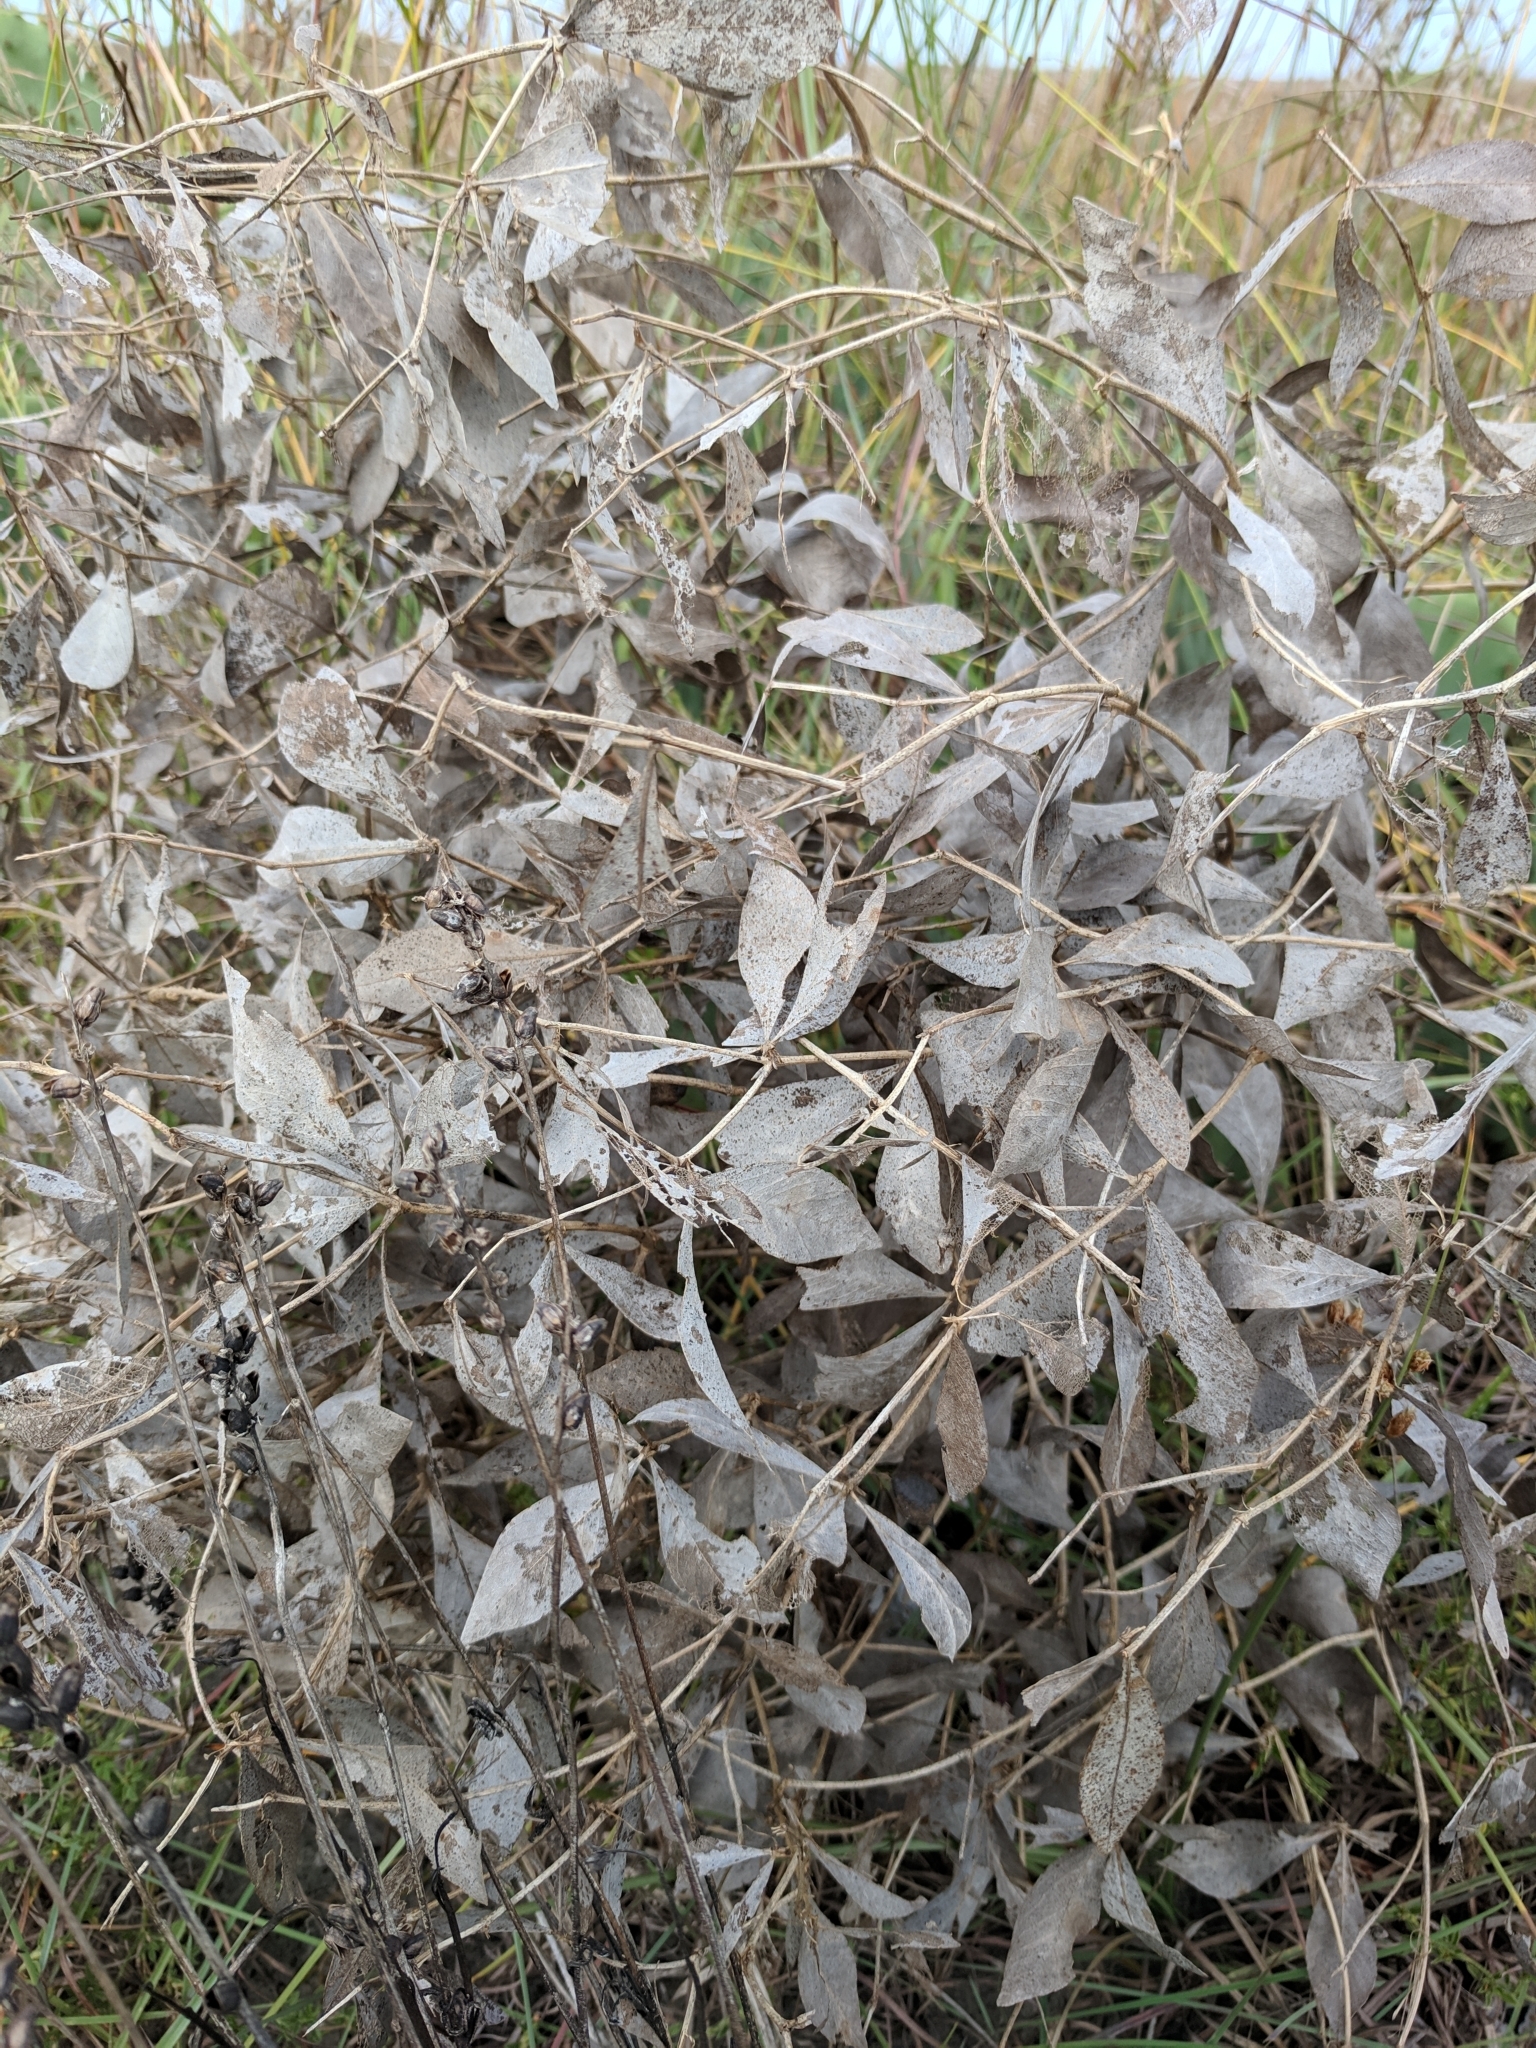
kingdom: Plantae
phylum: Tracheophyta
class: Magnoliopsida
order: Fabales
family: Fabaceae
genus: Baptisia
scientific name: Baptisia bracteata
